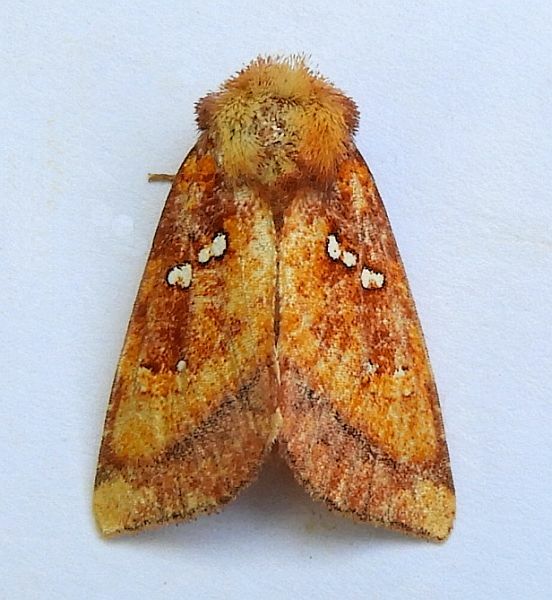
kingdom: Animalia
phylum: Arthropoda
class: Insecta
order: Lepidoptera
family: Noctuidae
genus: Papaipema
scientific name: Papaipema lysimachiae
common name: Loosestrife borer moth
